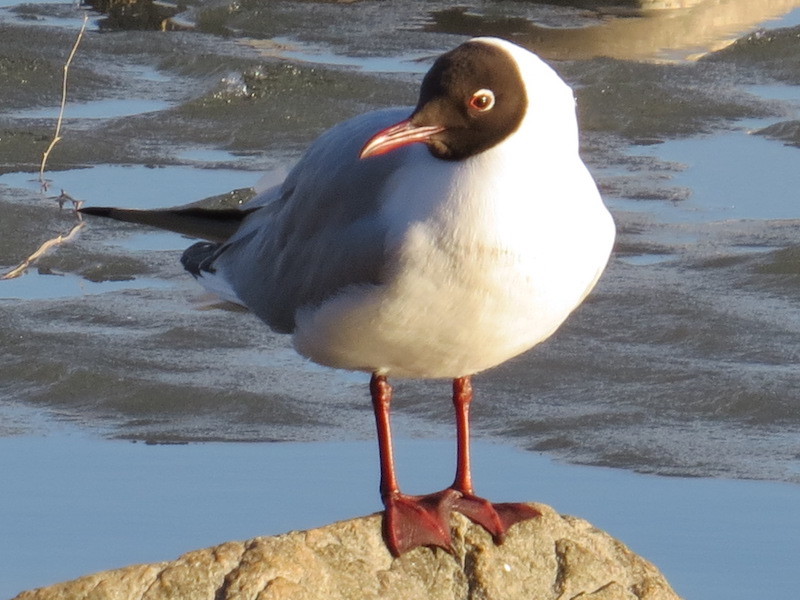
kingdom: Animalia
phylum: Chordata
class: Aves
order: Charadriiformes
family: Laridae
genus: Chroicocephalus
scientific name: Chroicocephalus ridibundus
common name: Black-headed gull
